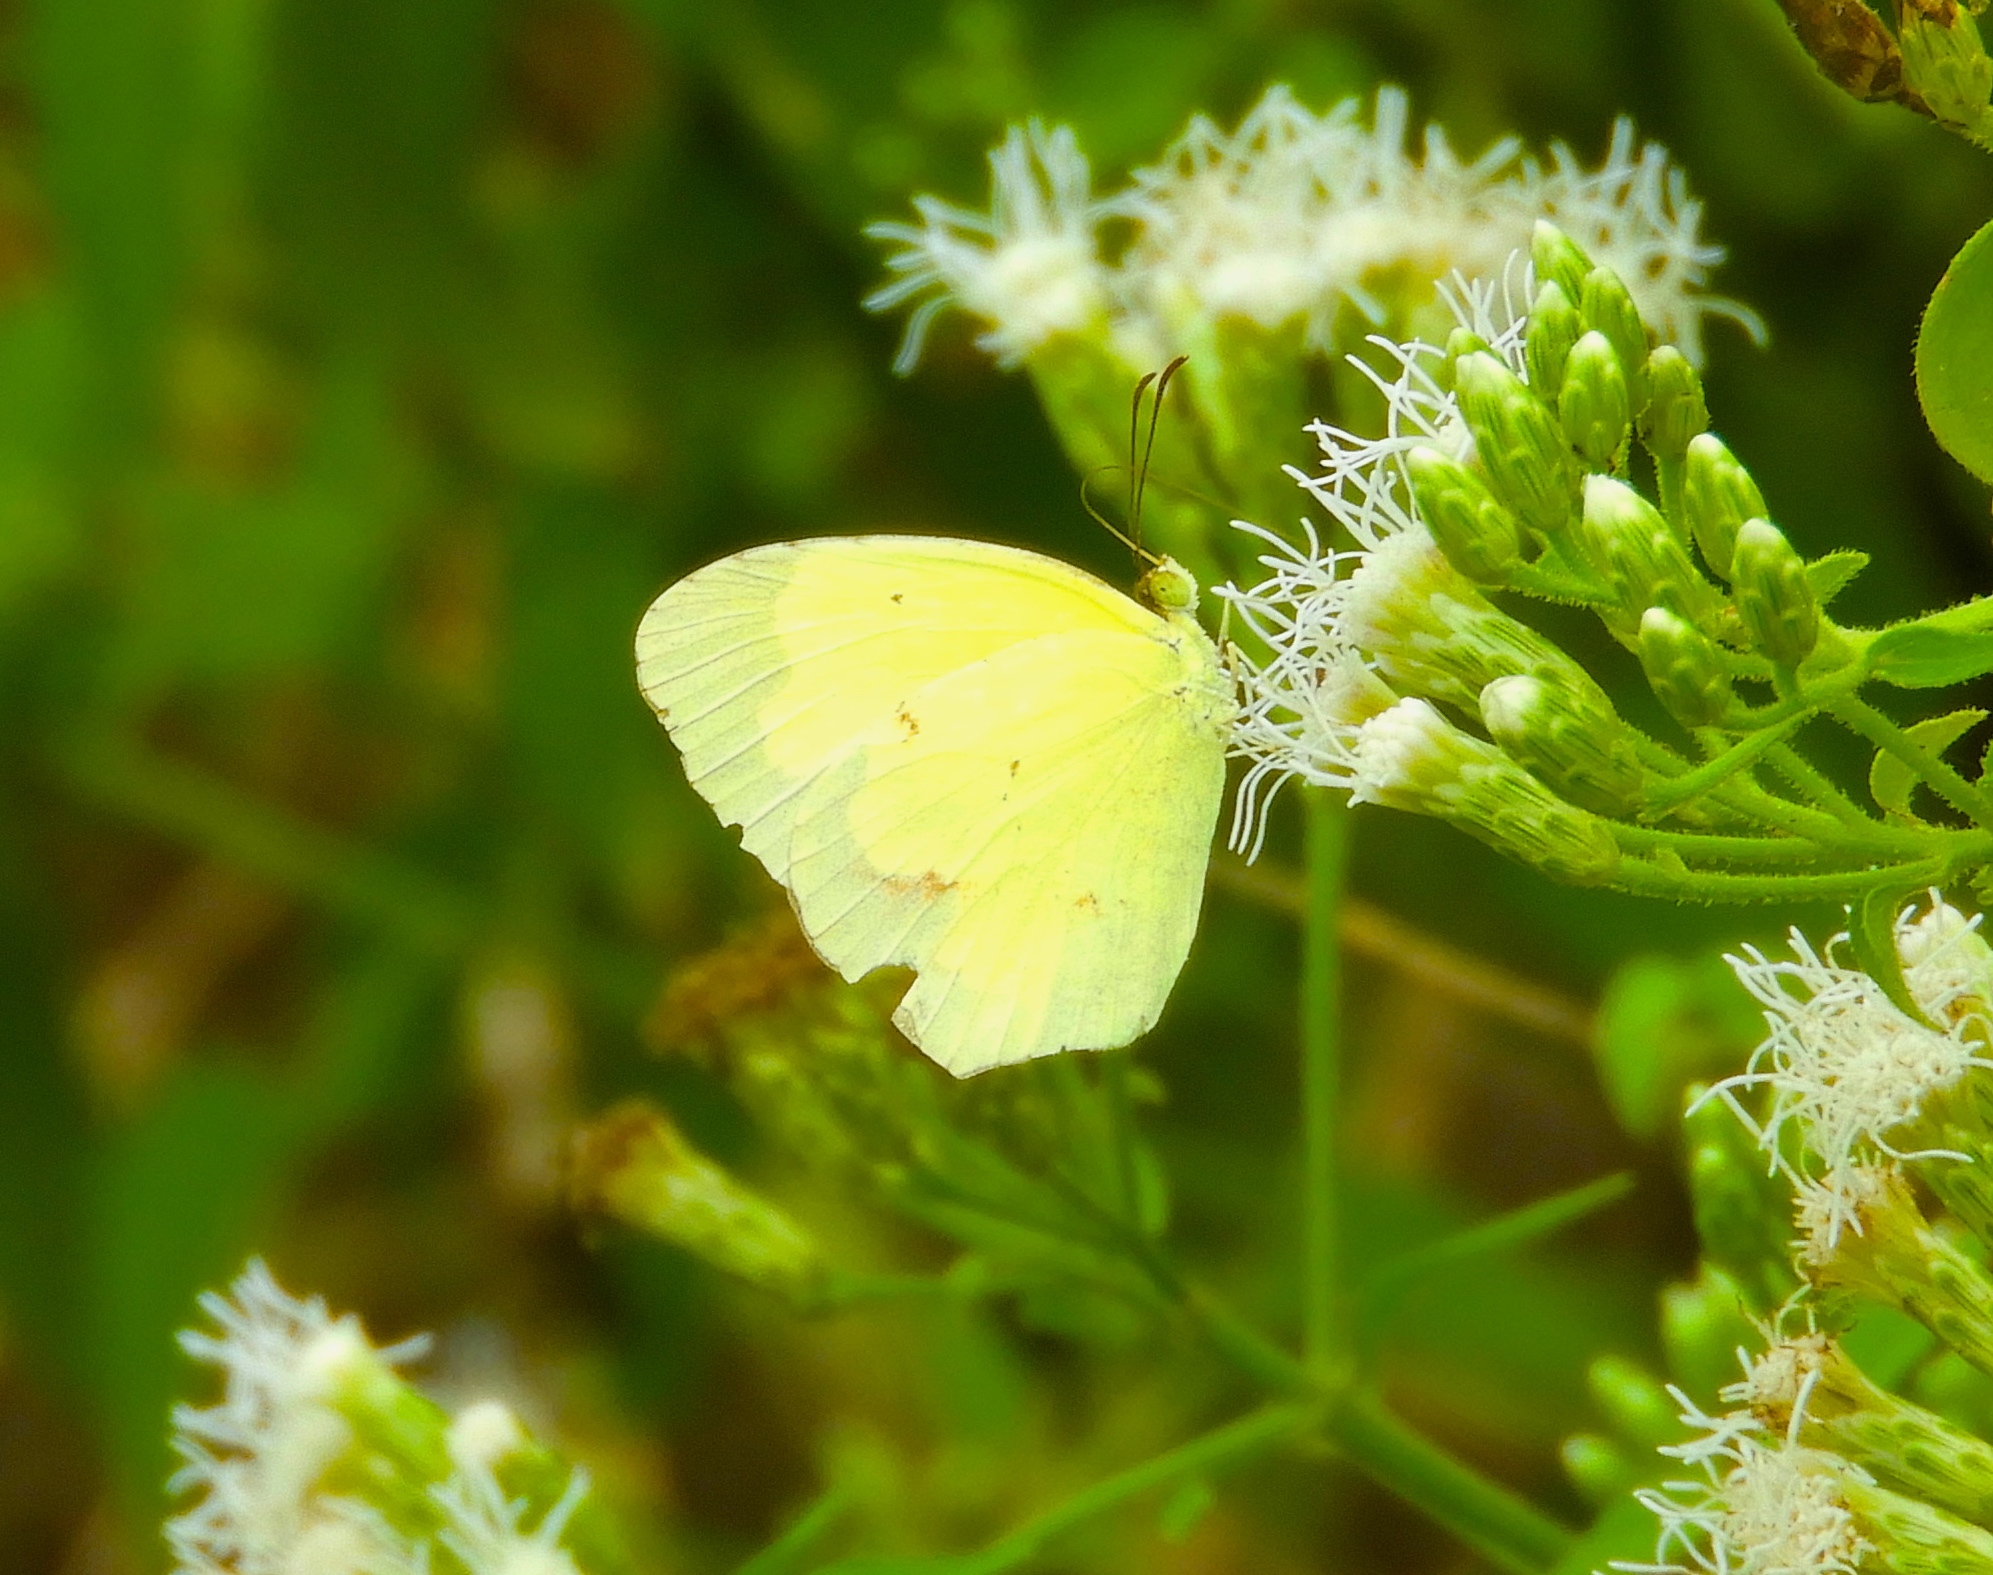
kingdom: Animalia
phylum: Arthropoda
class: Insecta
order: Lepidoptera
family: Pieridae
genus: Abaeis
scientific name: Abaeis salome
